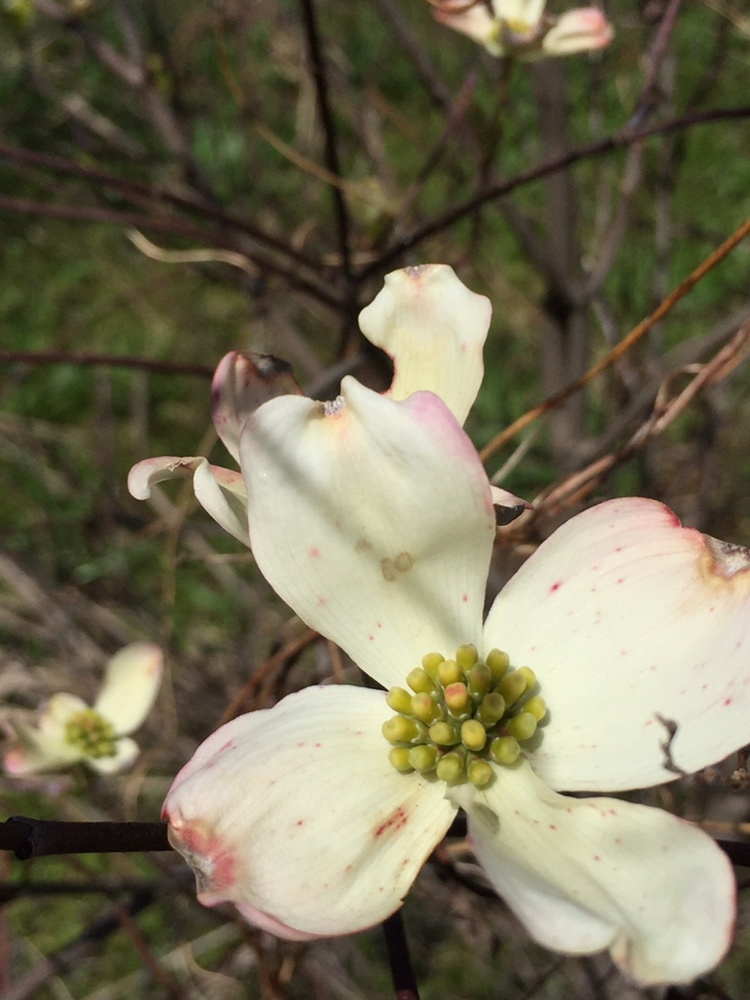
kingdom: Plantae
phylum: Tracheophyta
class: Magnoliopsida
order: Cornales
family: Cornaceae
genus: Cornus
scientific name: Cornus florida
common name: Flowering dogwood
